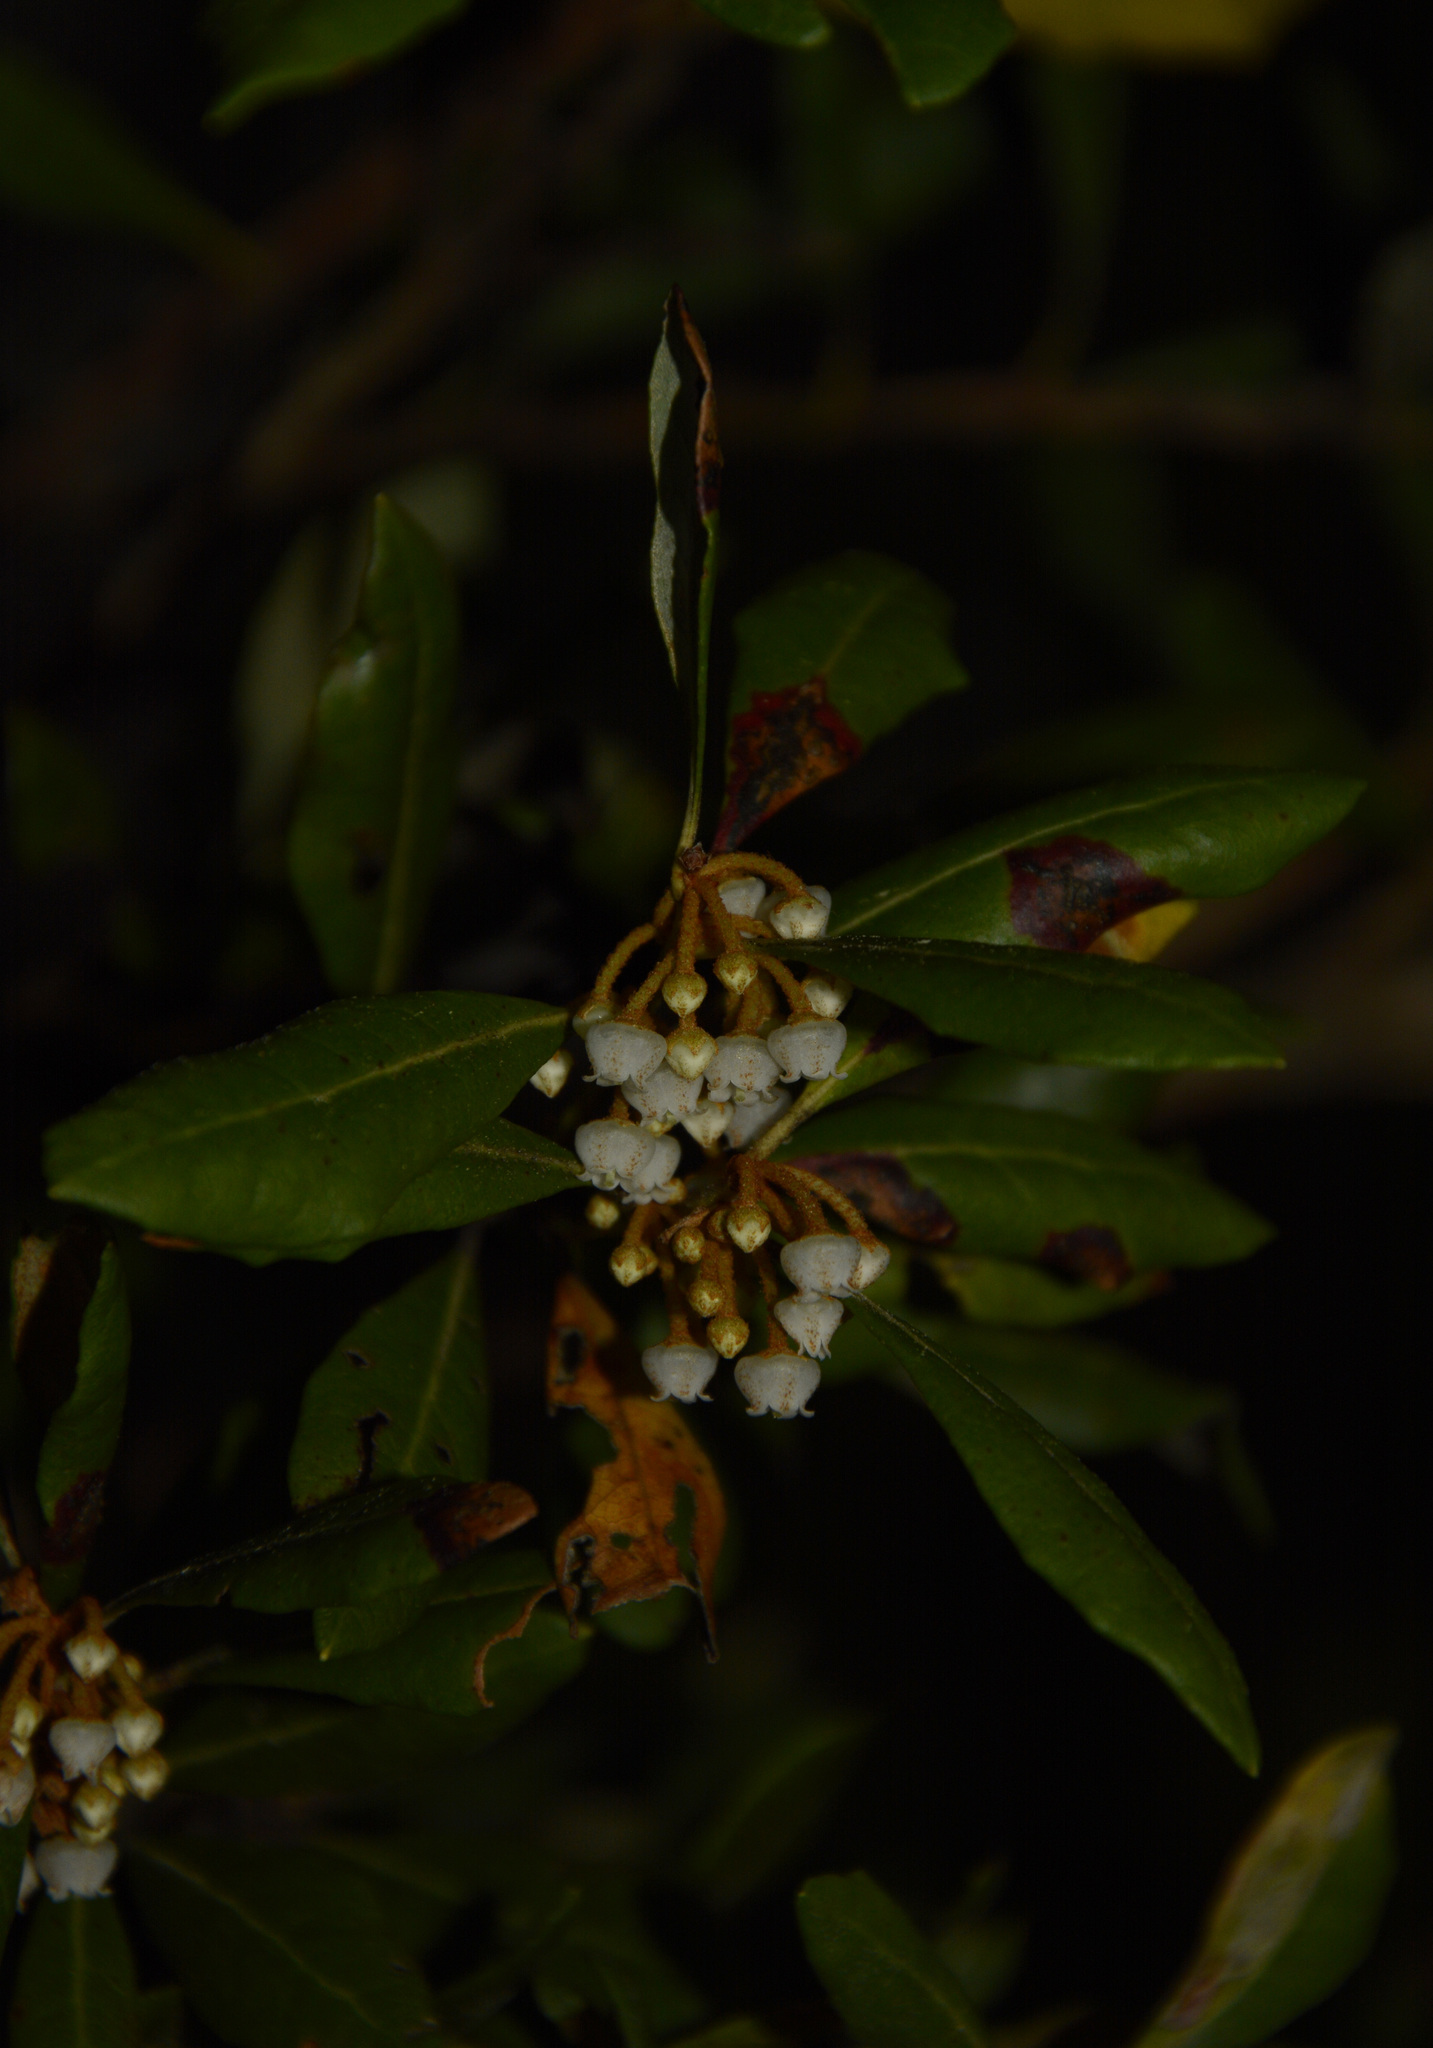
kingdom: Plantae
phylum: Tracheophyta
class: Magnoliopsida
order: Ericales
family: Ericaceae
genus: Lyonia
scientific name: Lyonia ferruginea
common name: Rusty lyonia
